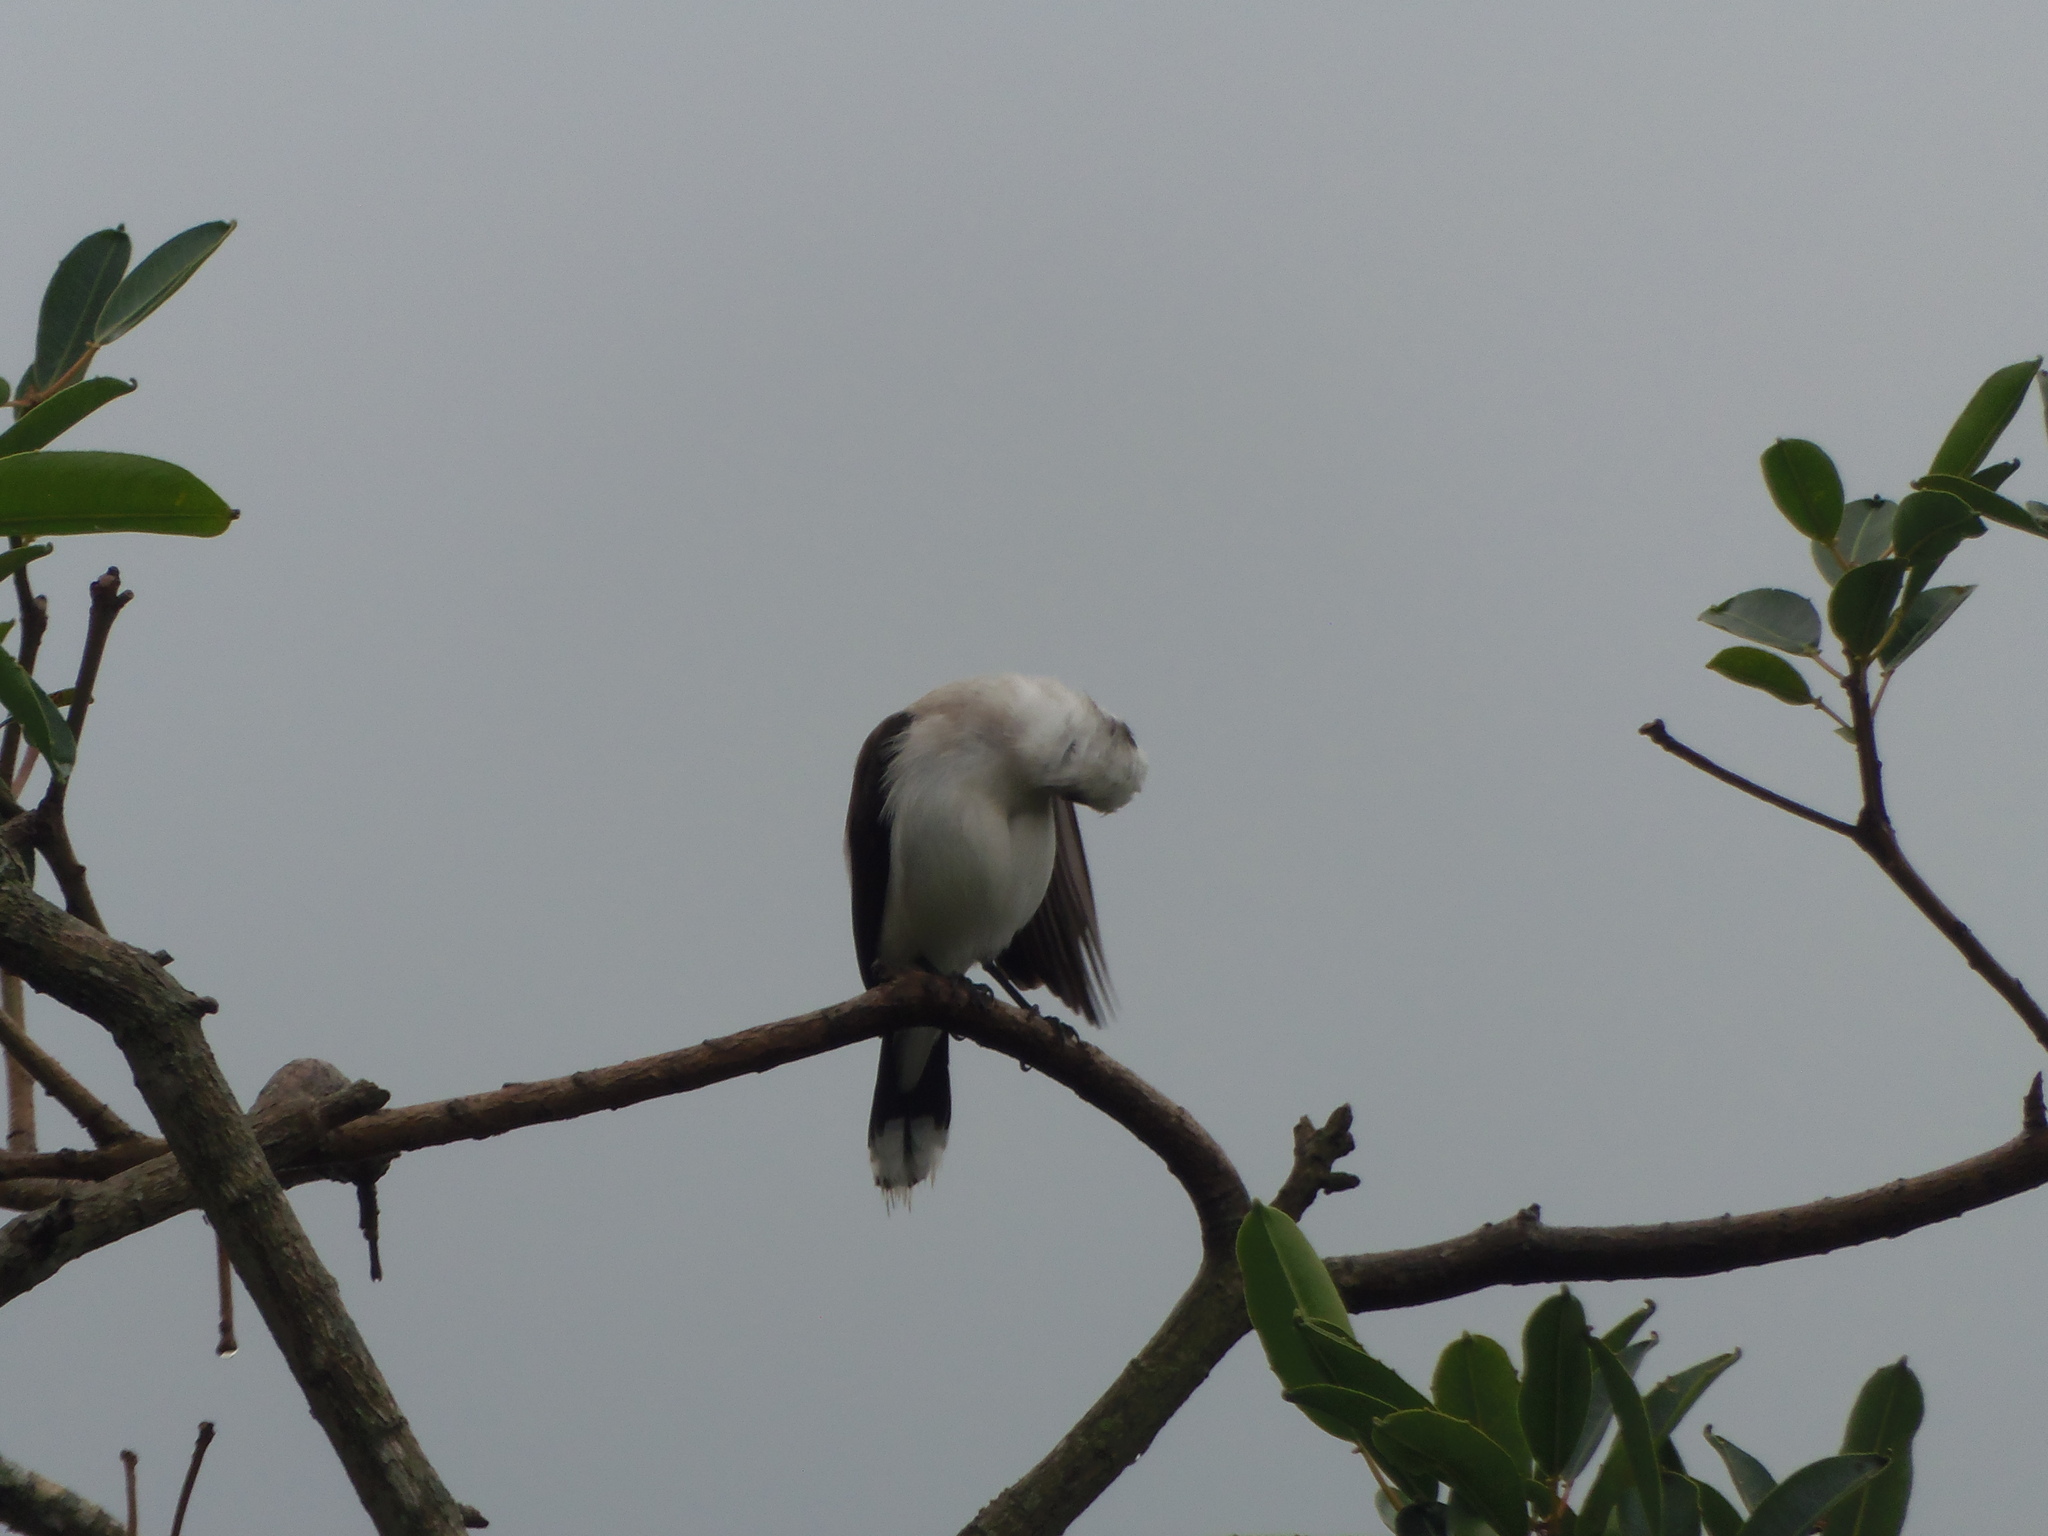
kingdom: Animalia
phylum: Chordata
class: Aves
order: Passeriformes
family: Tyrannidae
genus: Fluvicola
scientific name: Fluvicola nengeta
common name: Masked water tyrant
